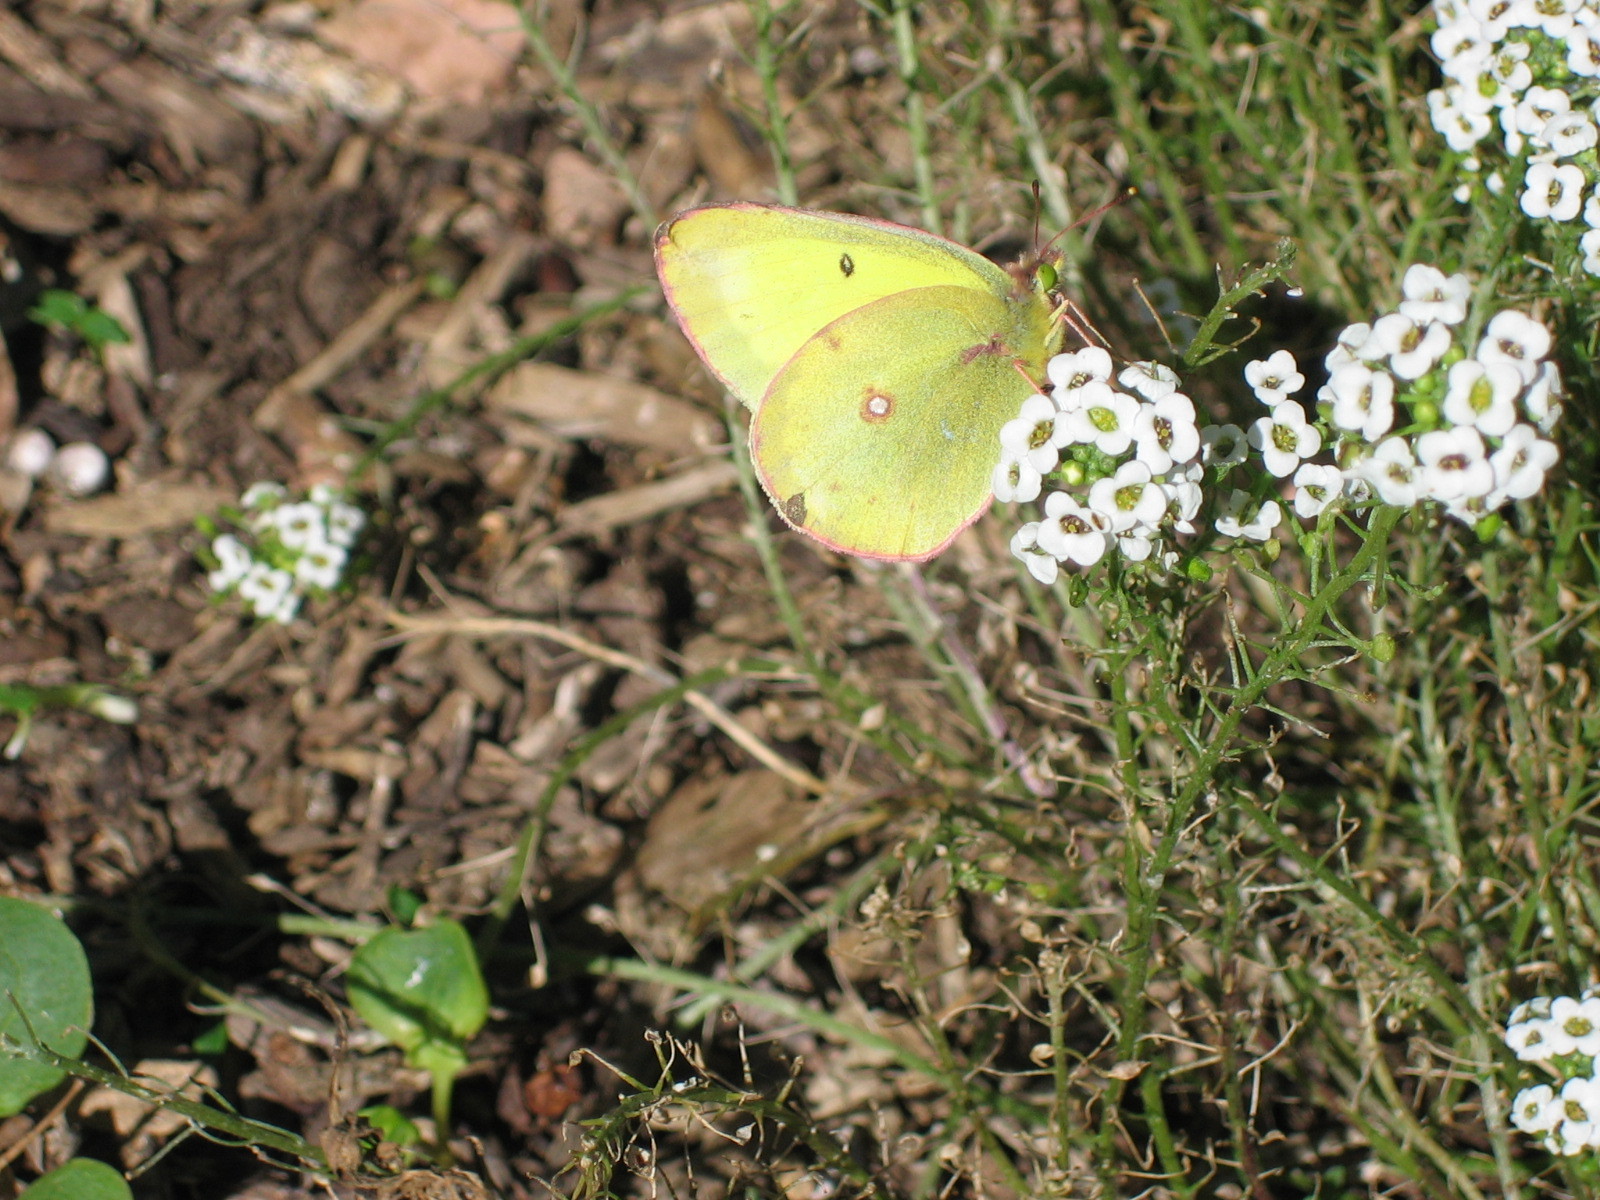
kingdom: Animalia
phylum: Arthropoda
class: Insecta
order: Lepidoptera
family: Pieridae
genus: Colias
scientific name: Colias philodice
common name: Clouded sulphur
